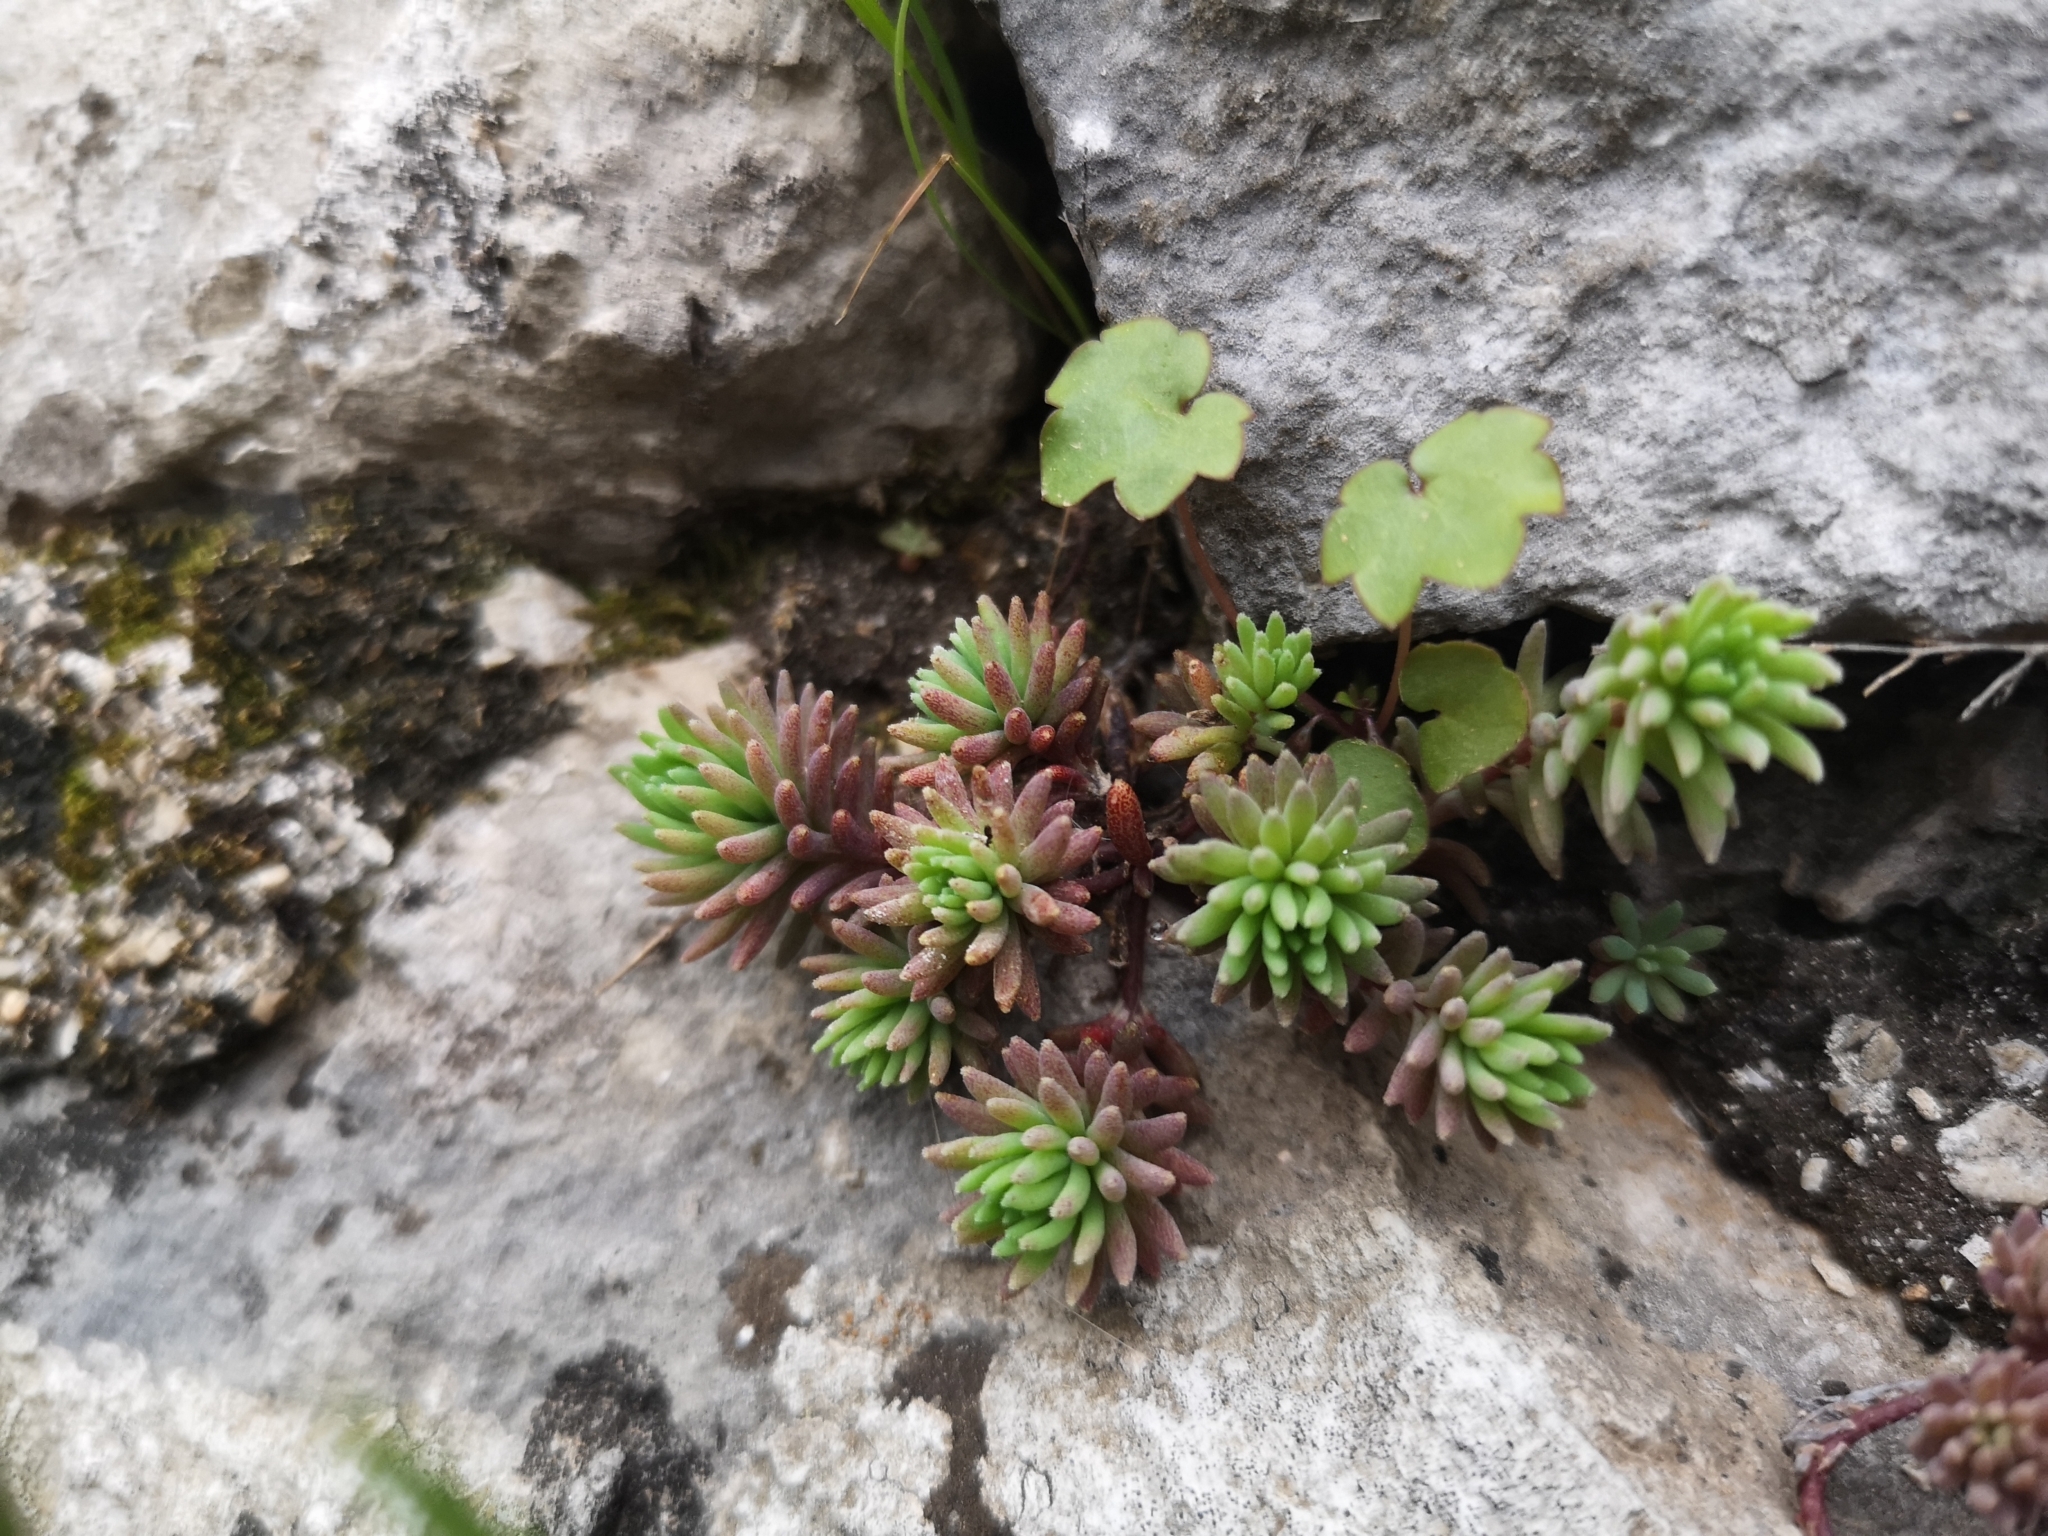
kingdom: Plantae
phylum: Tracheophyta
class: Magnoliopsida
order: Saxifragales
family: Crassulaceae
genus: Sedum
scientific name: Sedum hispanicum
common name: Spanish stonecrop
